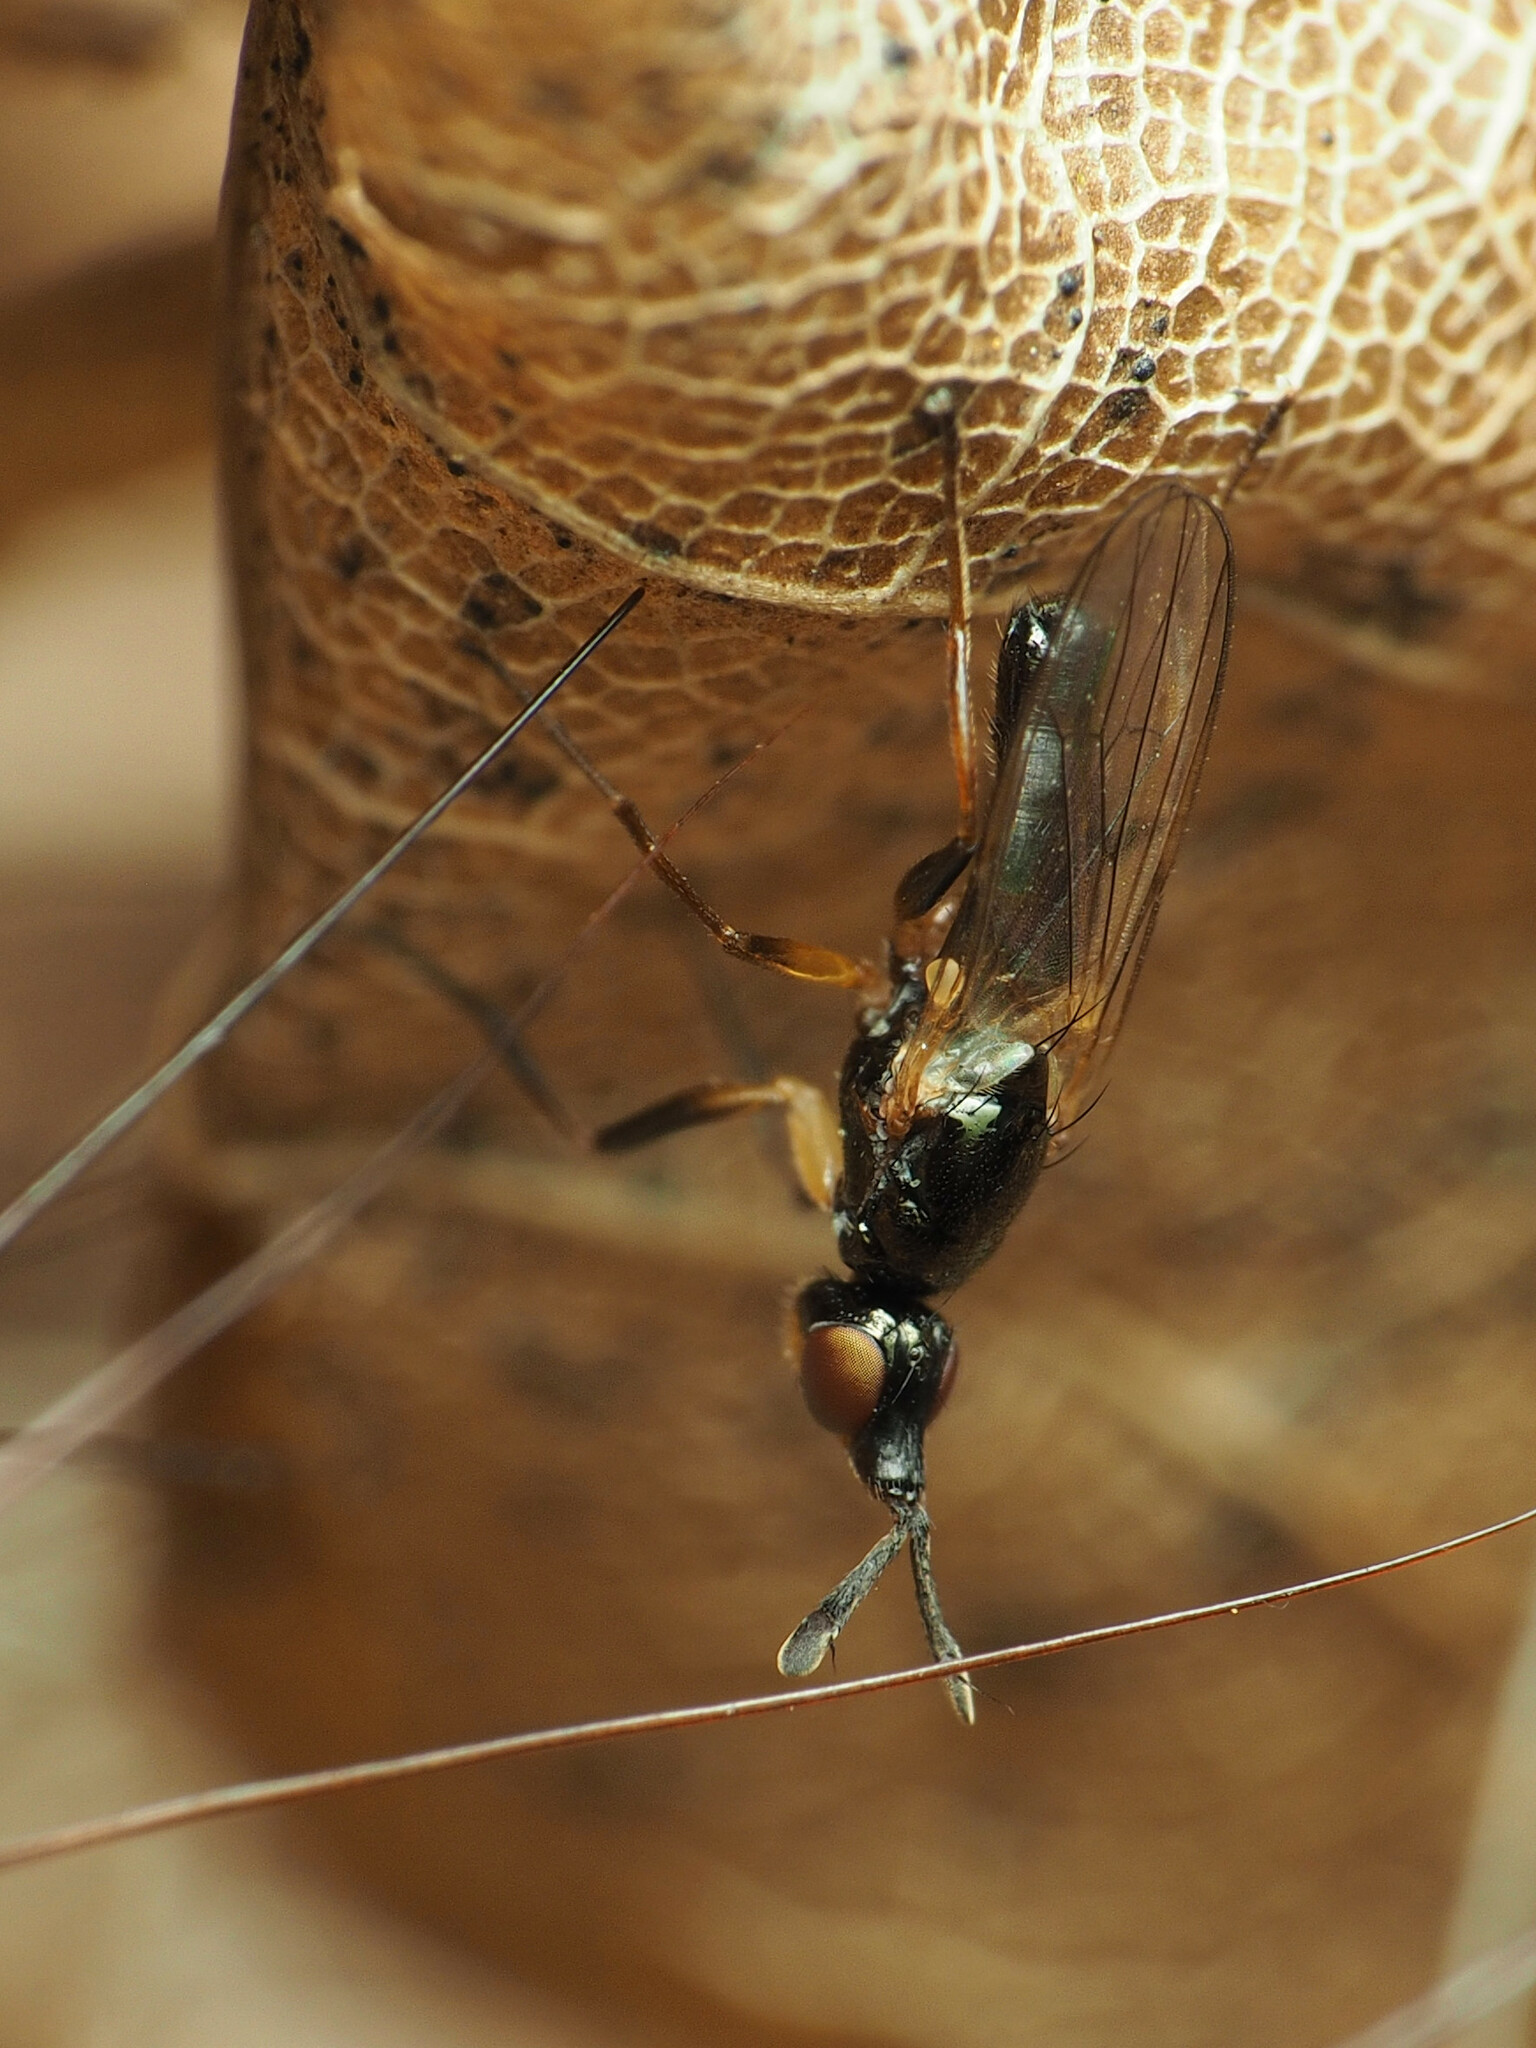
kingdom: Animalia
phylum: Arthropoda
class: Insecta
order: Diptera
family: Piophilidae
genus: Prochyliza
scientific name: Prochyliza xanthostoma
